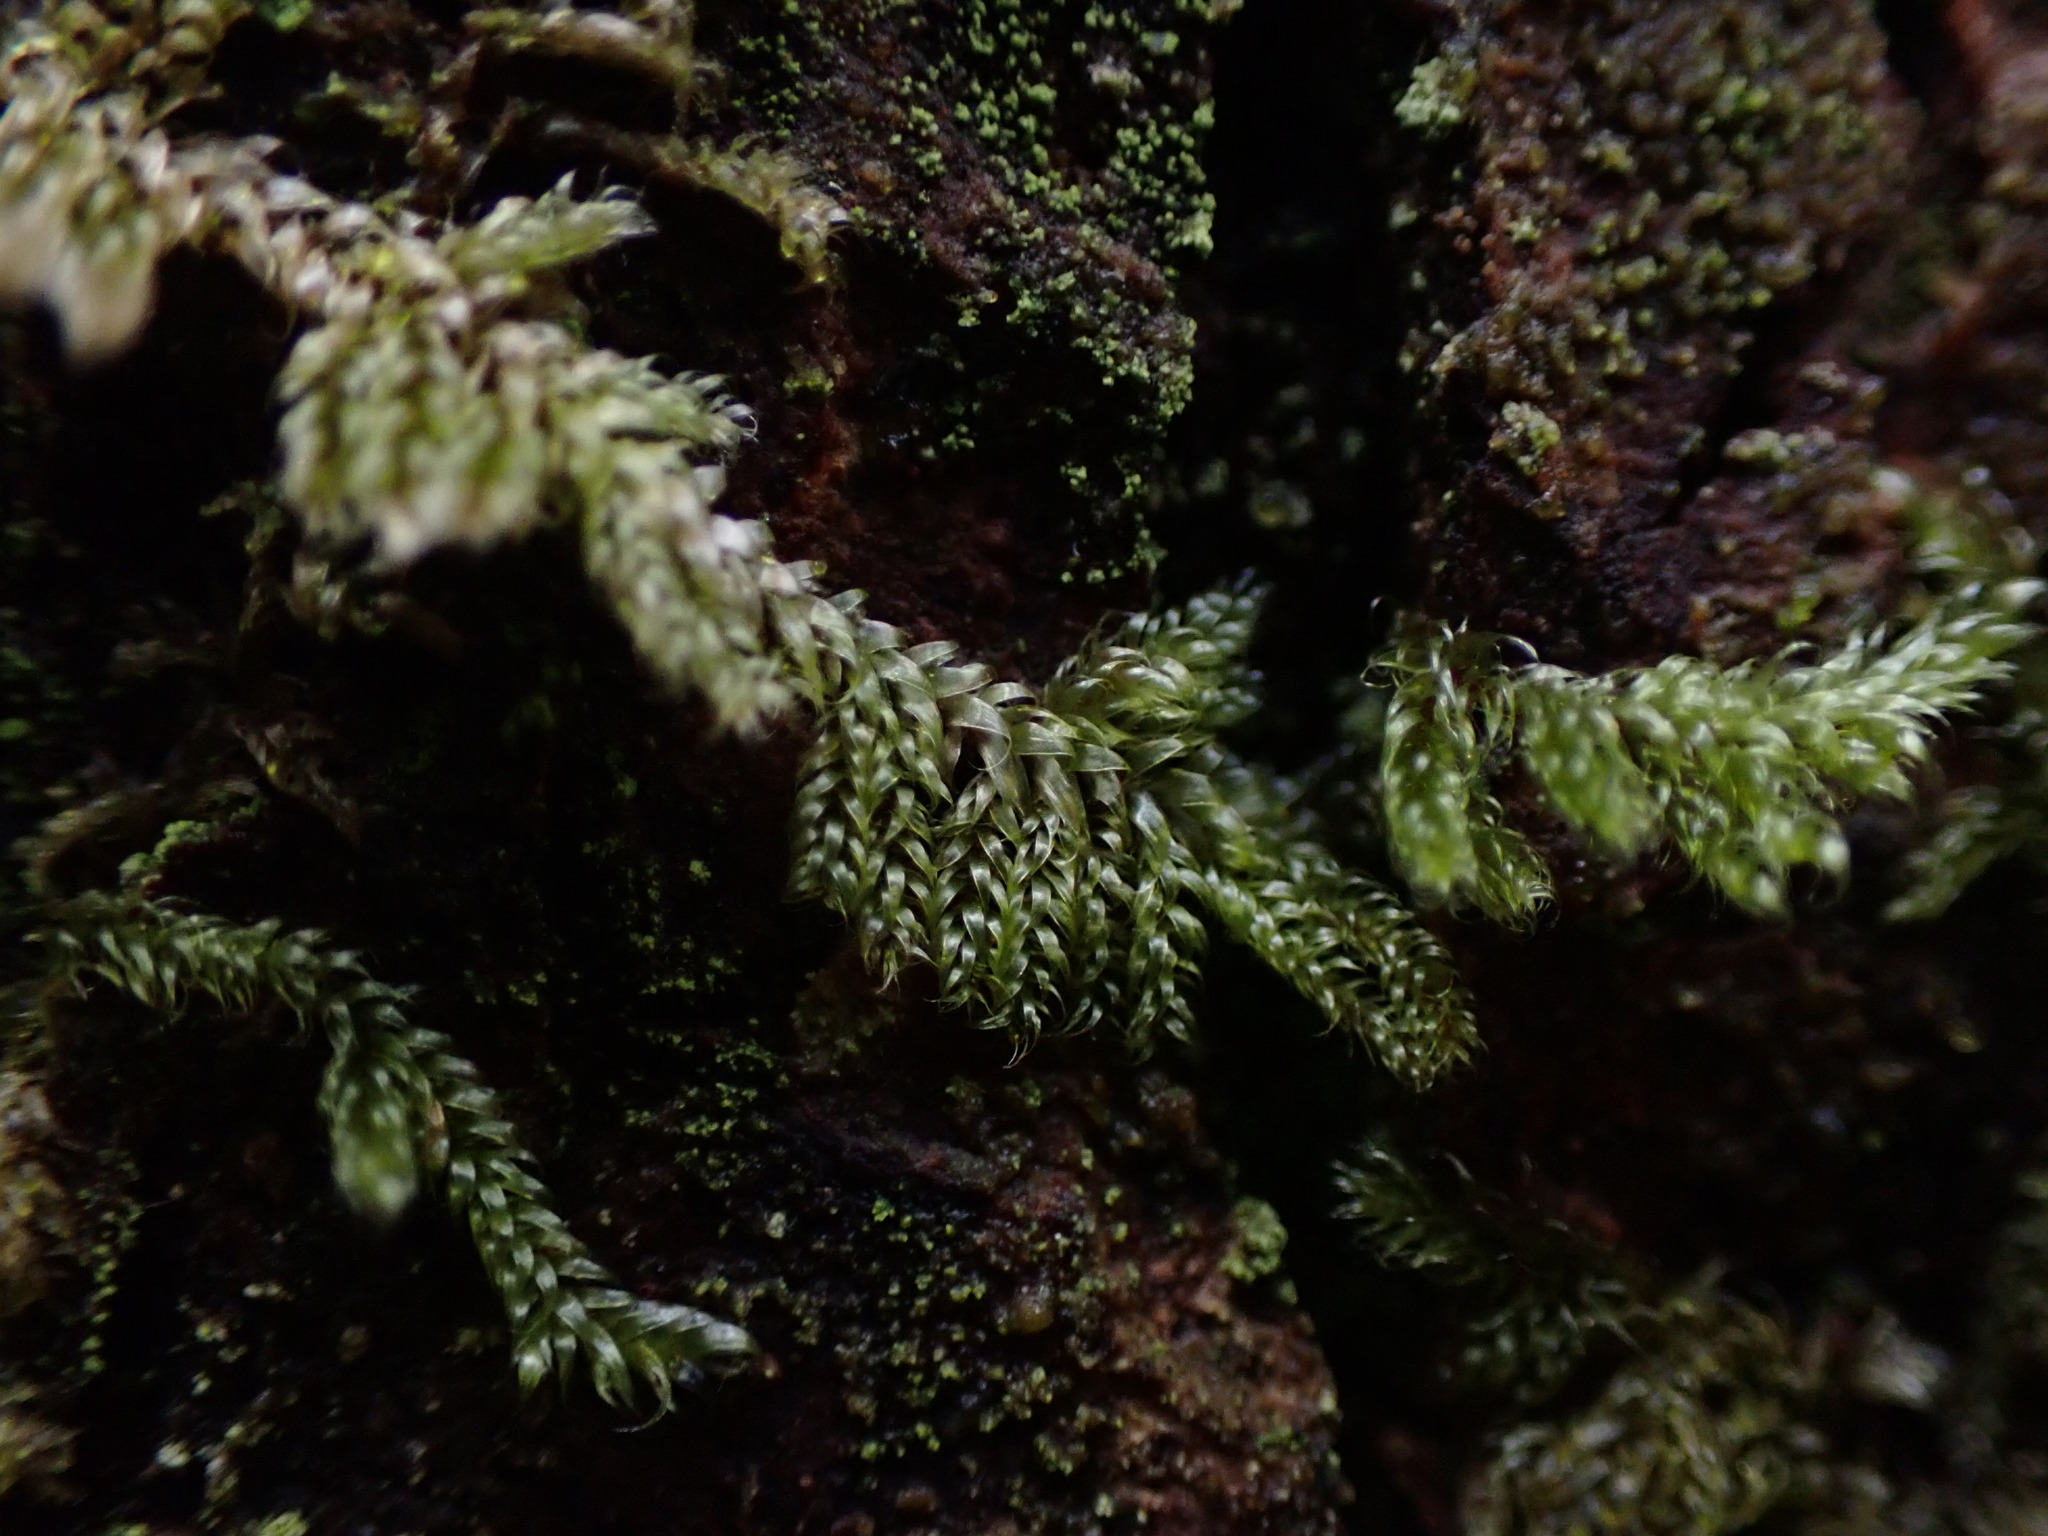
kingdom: Plantae
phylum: Bryophyta
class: Bryopsida
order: Hypnales
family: Pylaisiadelphaceae
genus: Trochophyllohypnum
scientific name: Trochophyllohypnum circinale
